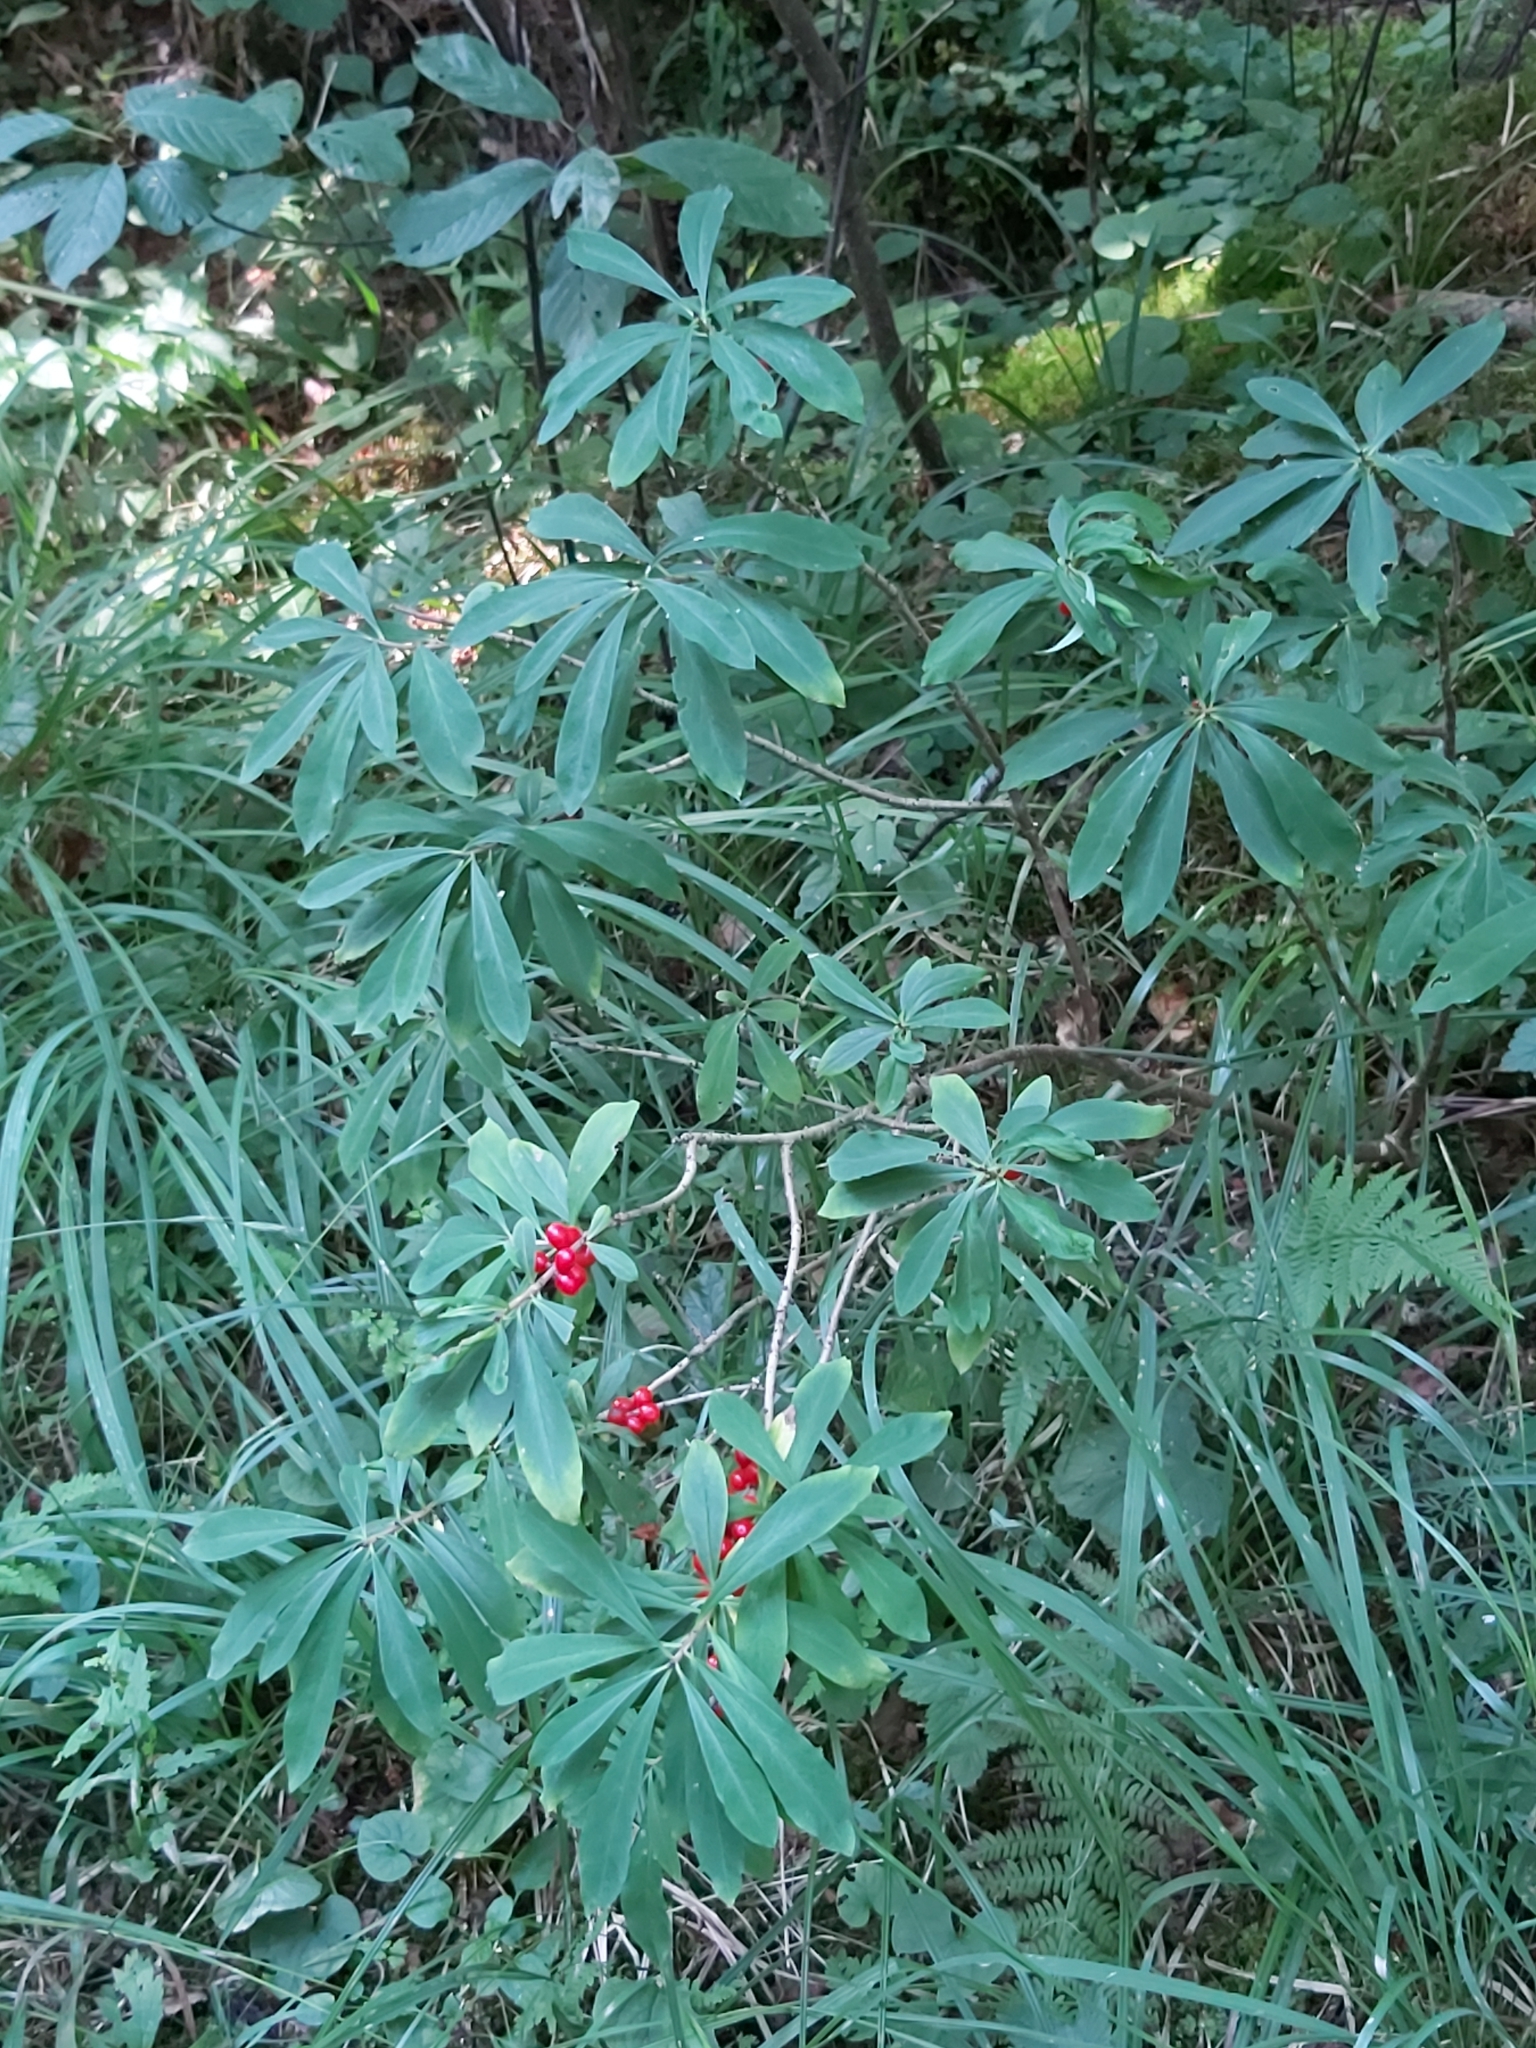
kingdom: Plantae
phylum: Tracheophyta
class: Magnoliopsida
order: Malvales
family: Thymelaeaceae
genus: Daphne
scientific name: Daphne mezereum
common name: Mezereon
